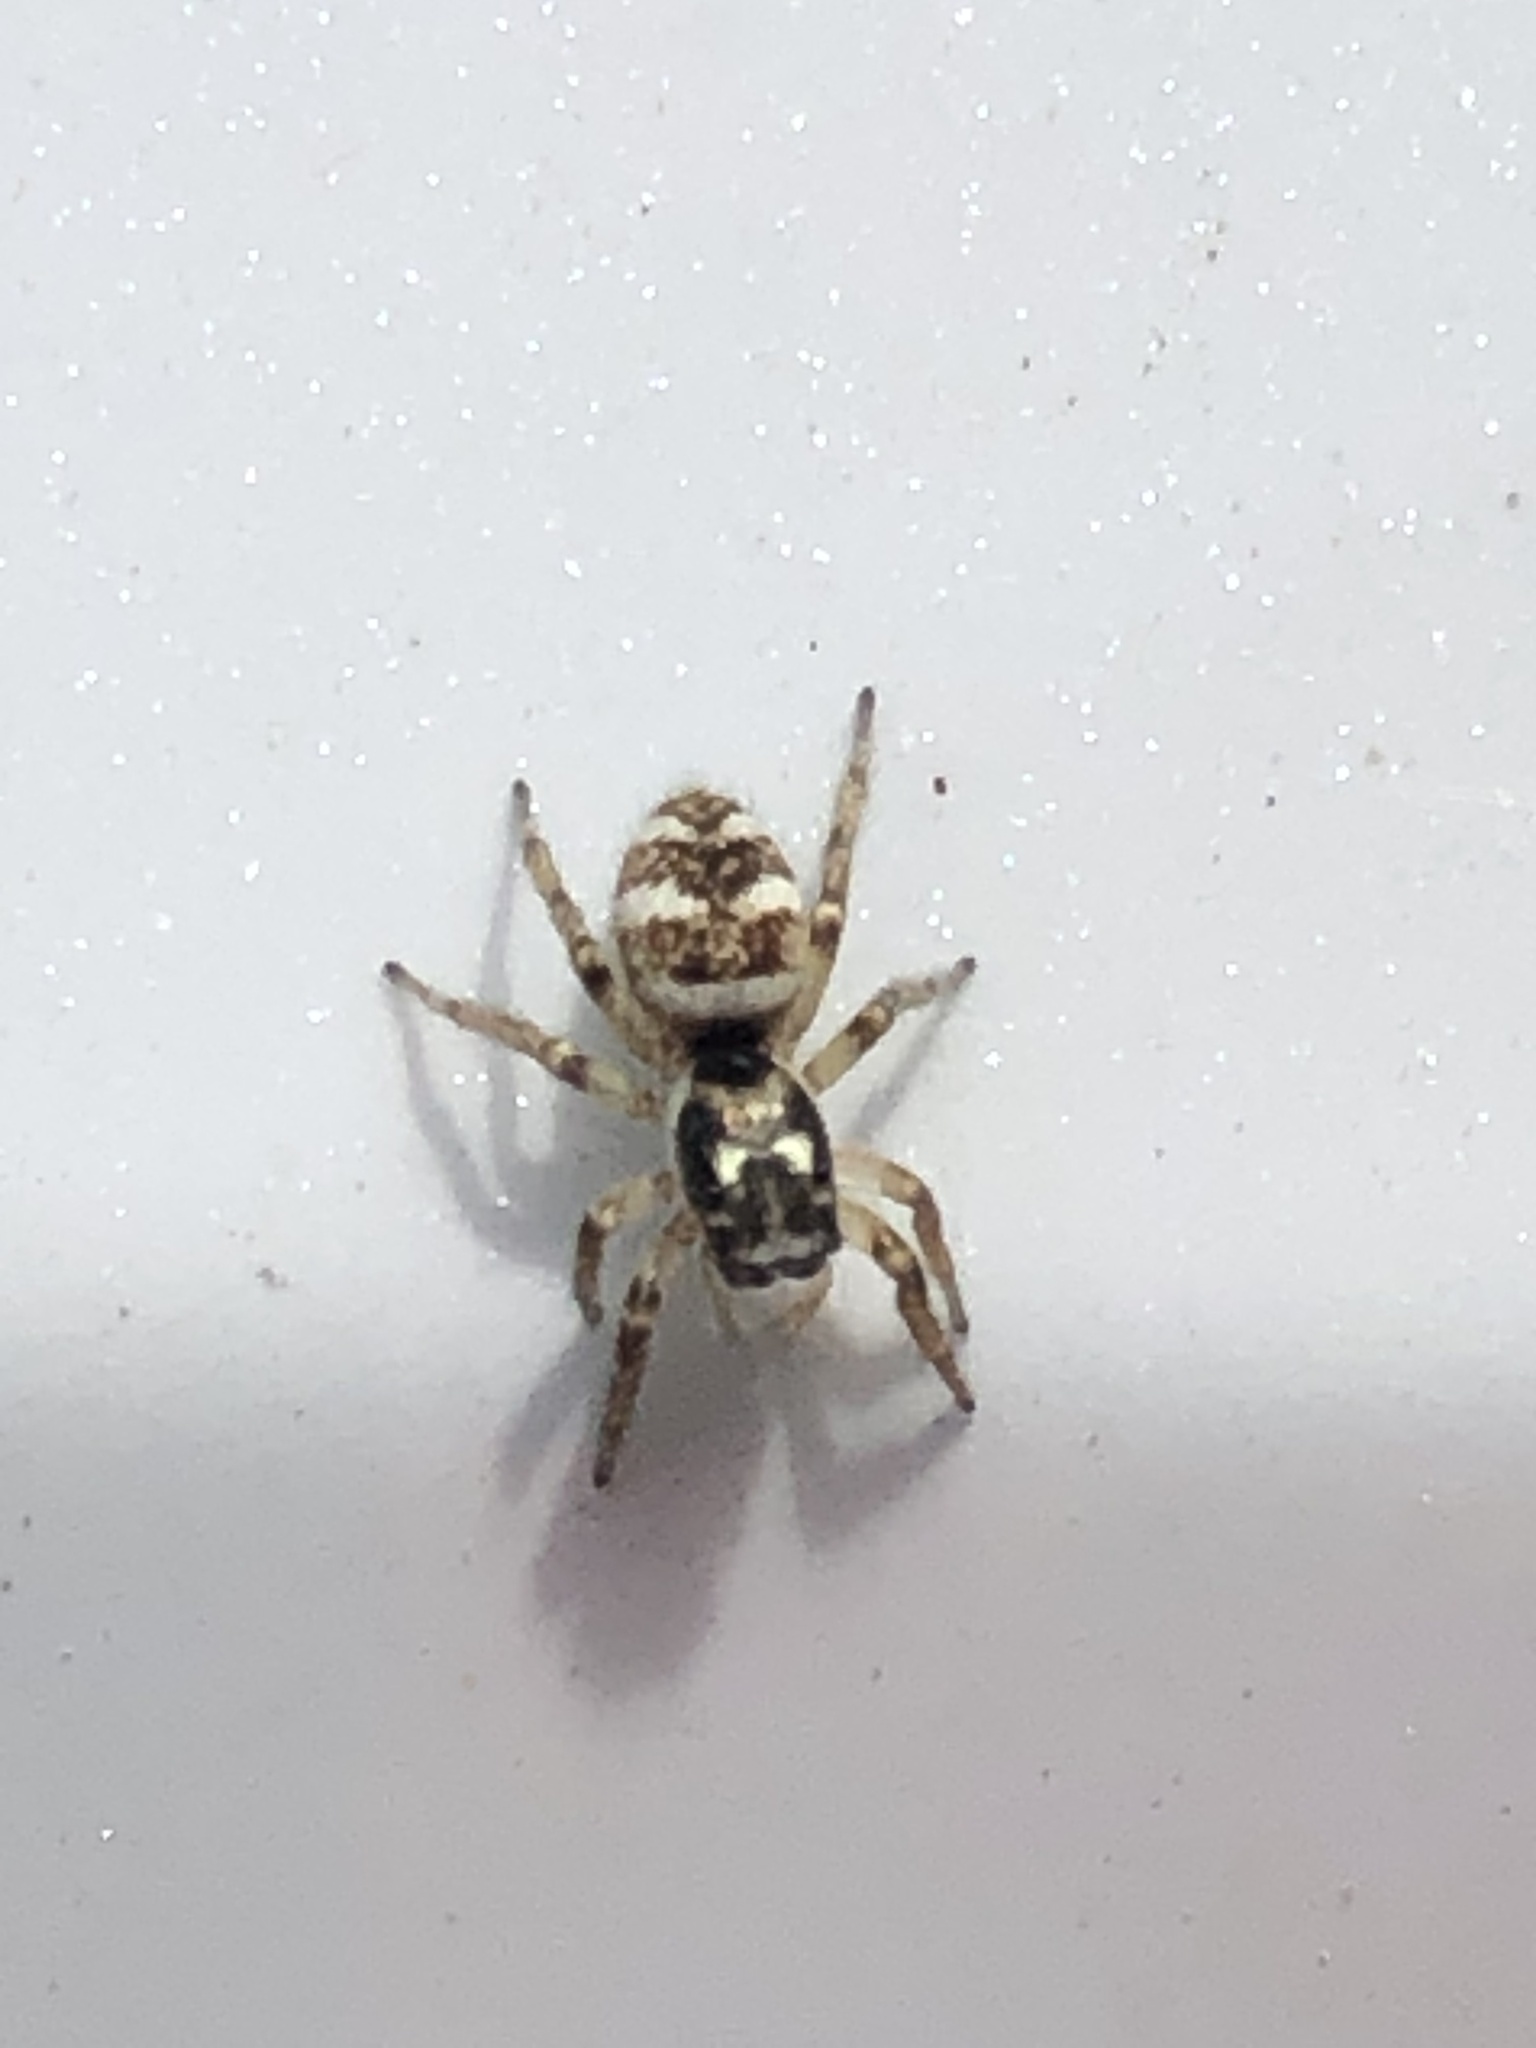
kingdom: Animalia
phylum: Arthropoda
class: Arachnida
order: Araneae
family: Salticidae
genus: Salticus
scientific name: Salticus scenicus
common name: Zebra jumper
